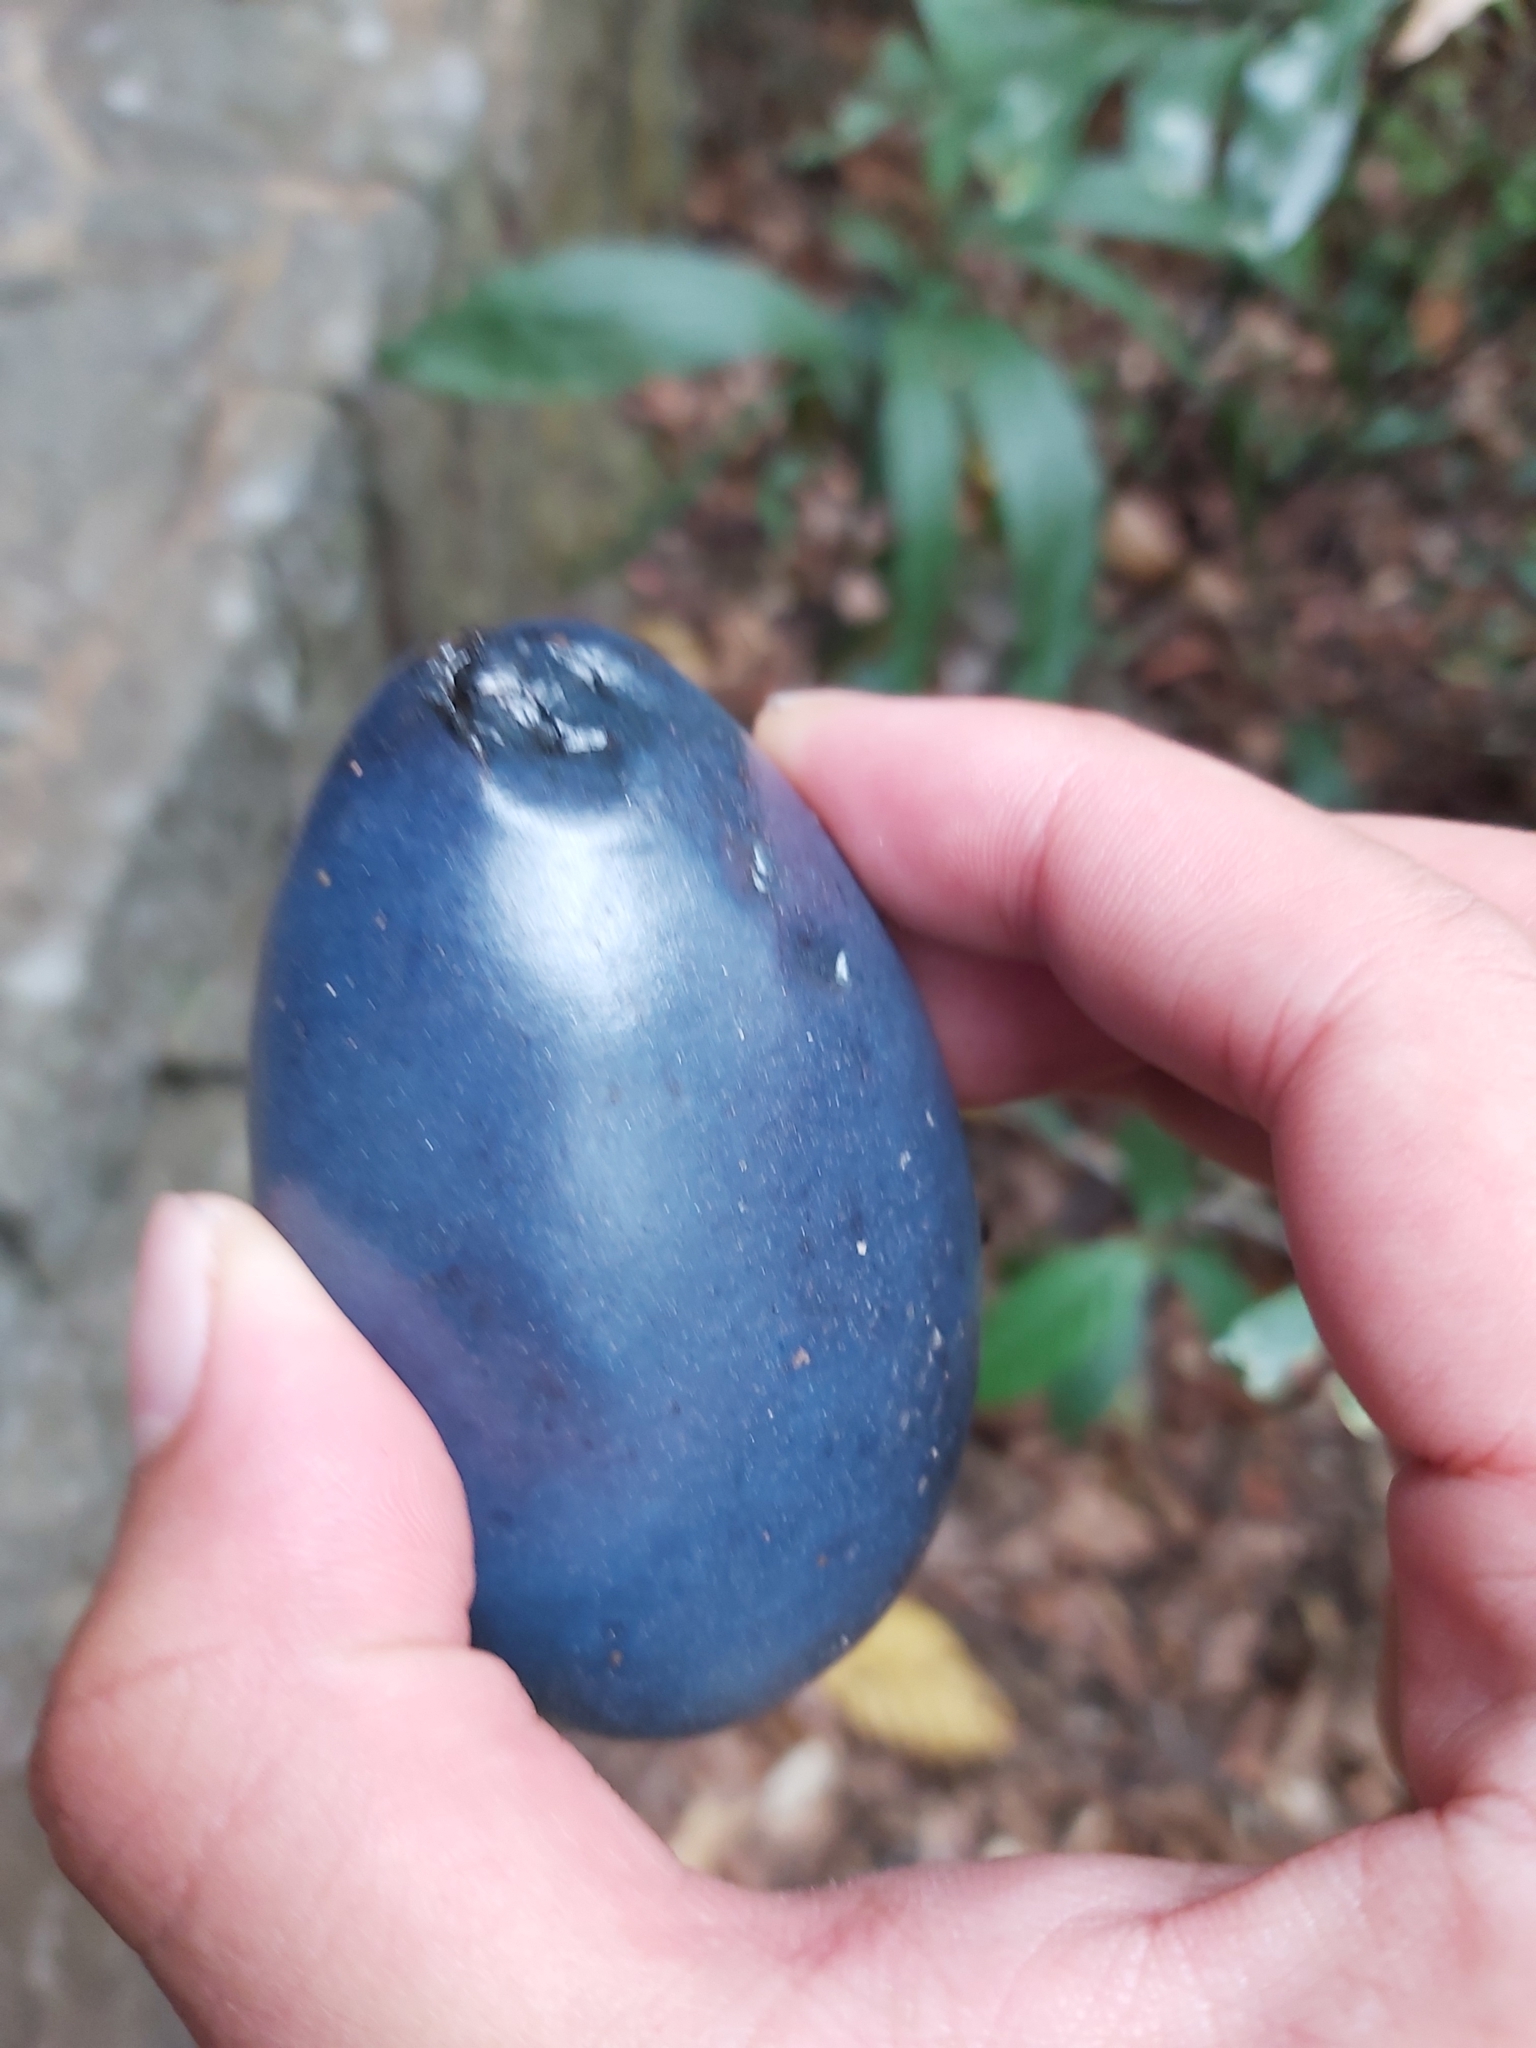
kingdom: Plantae
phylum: Tracheophyta
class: Magnoliopsida
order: Gentianales
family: Apocynaceae
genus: Cerbera
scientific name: Cerbera floribunda
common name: Cassowary plumtree
